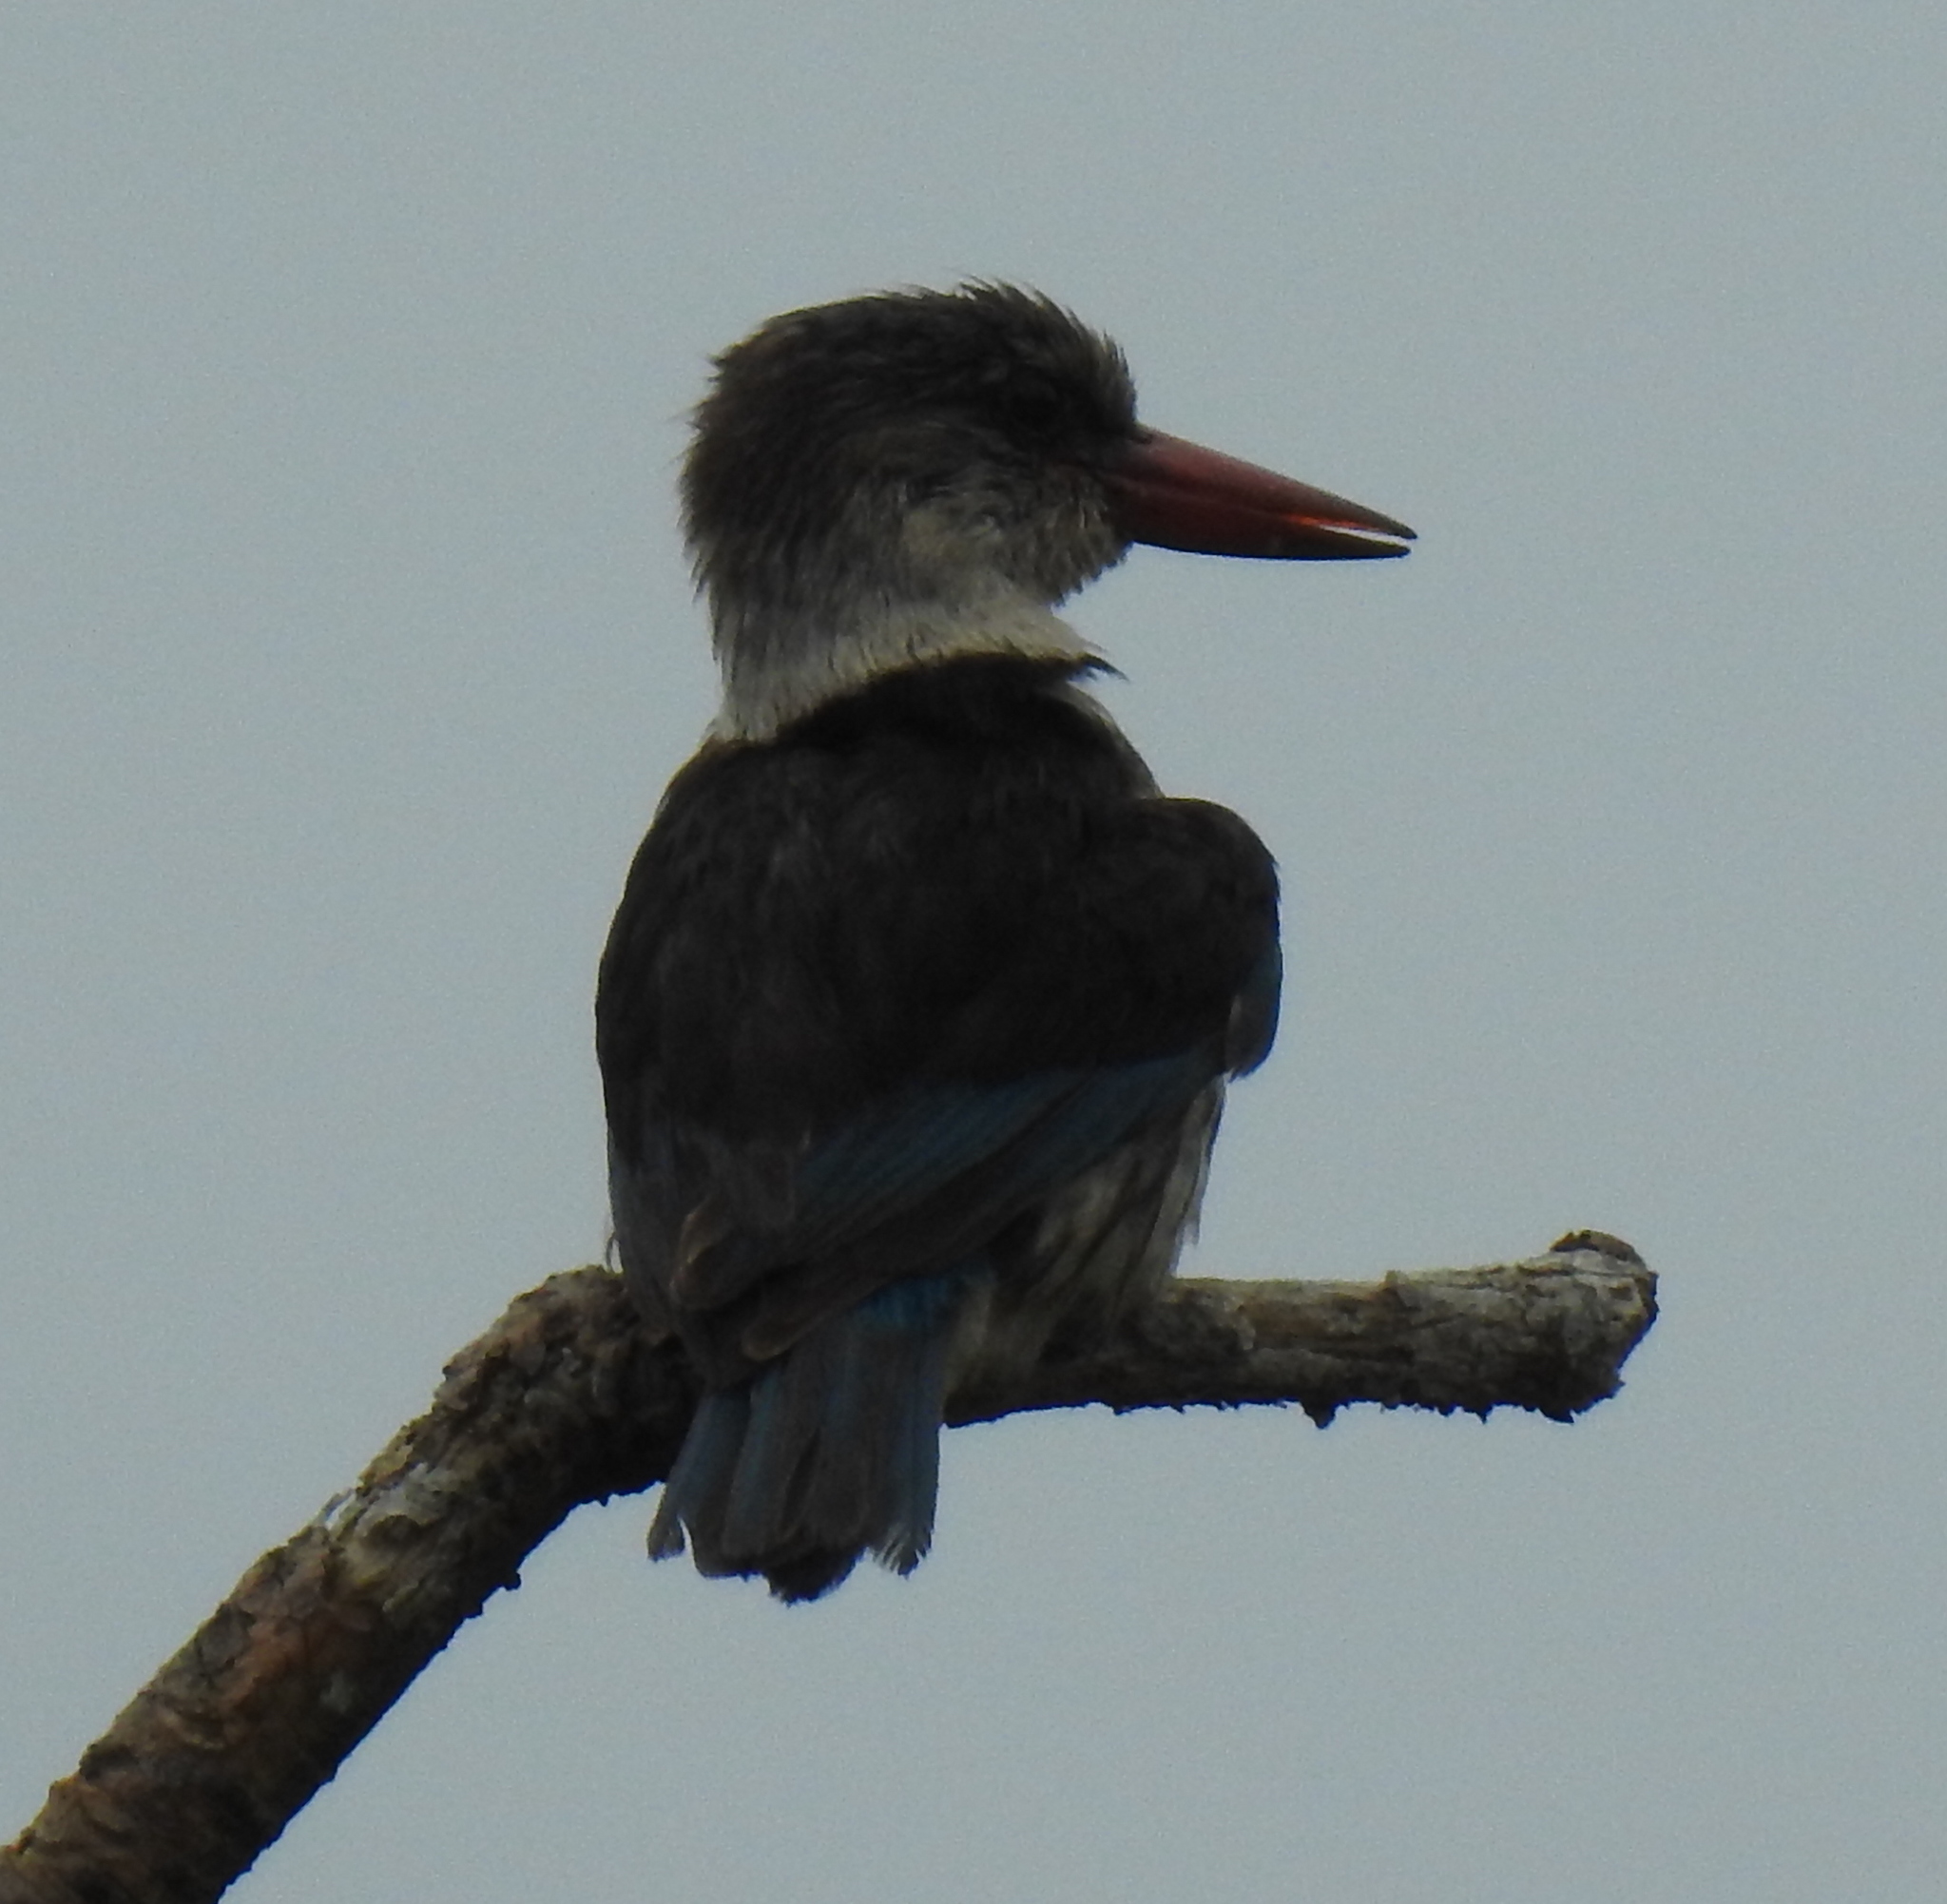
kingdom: Animalia
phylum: Chordata
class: Aves
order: Coraciiformes
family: Alcedinidae
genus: Halcyon
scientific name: Halcyon albiventris
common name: Brown-hooded kingfisher
